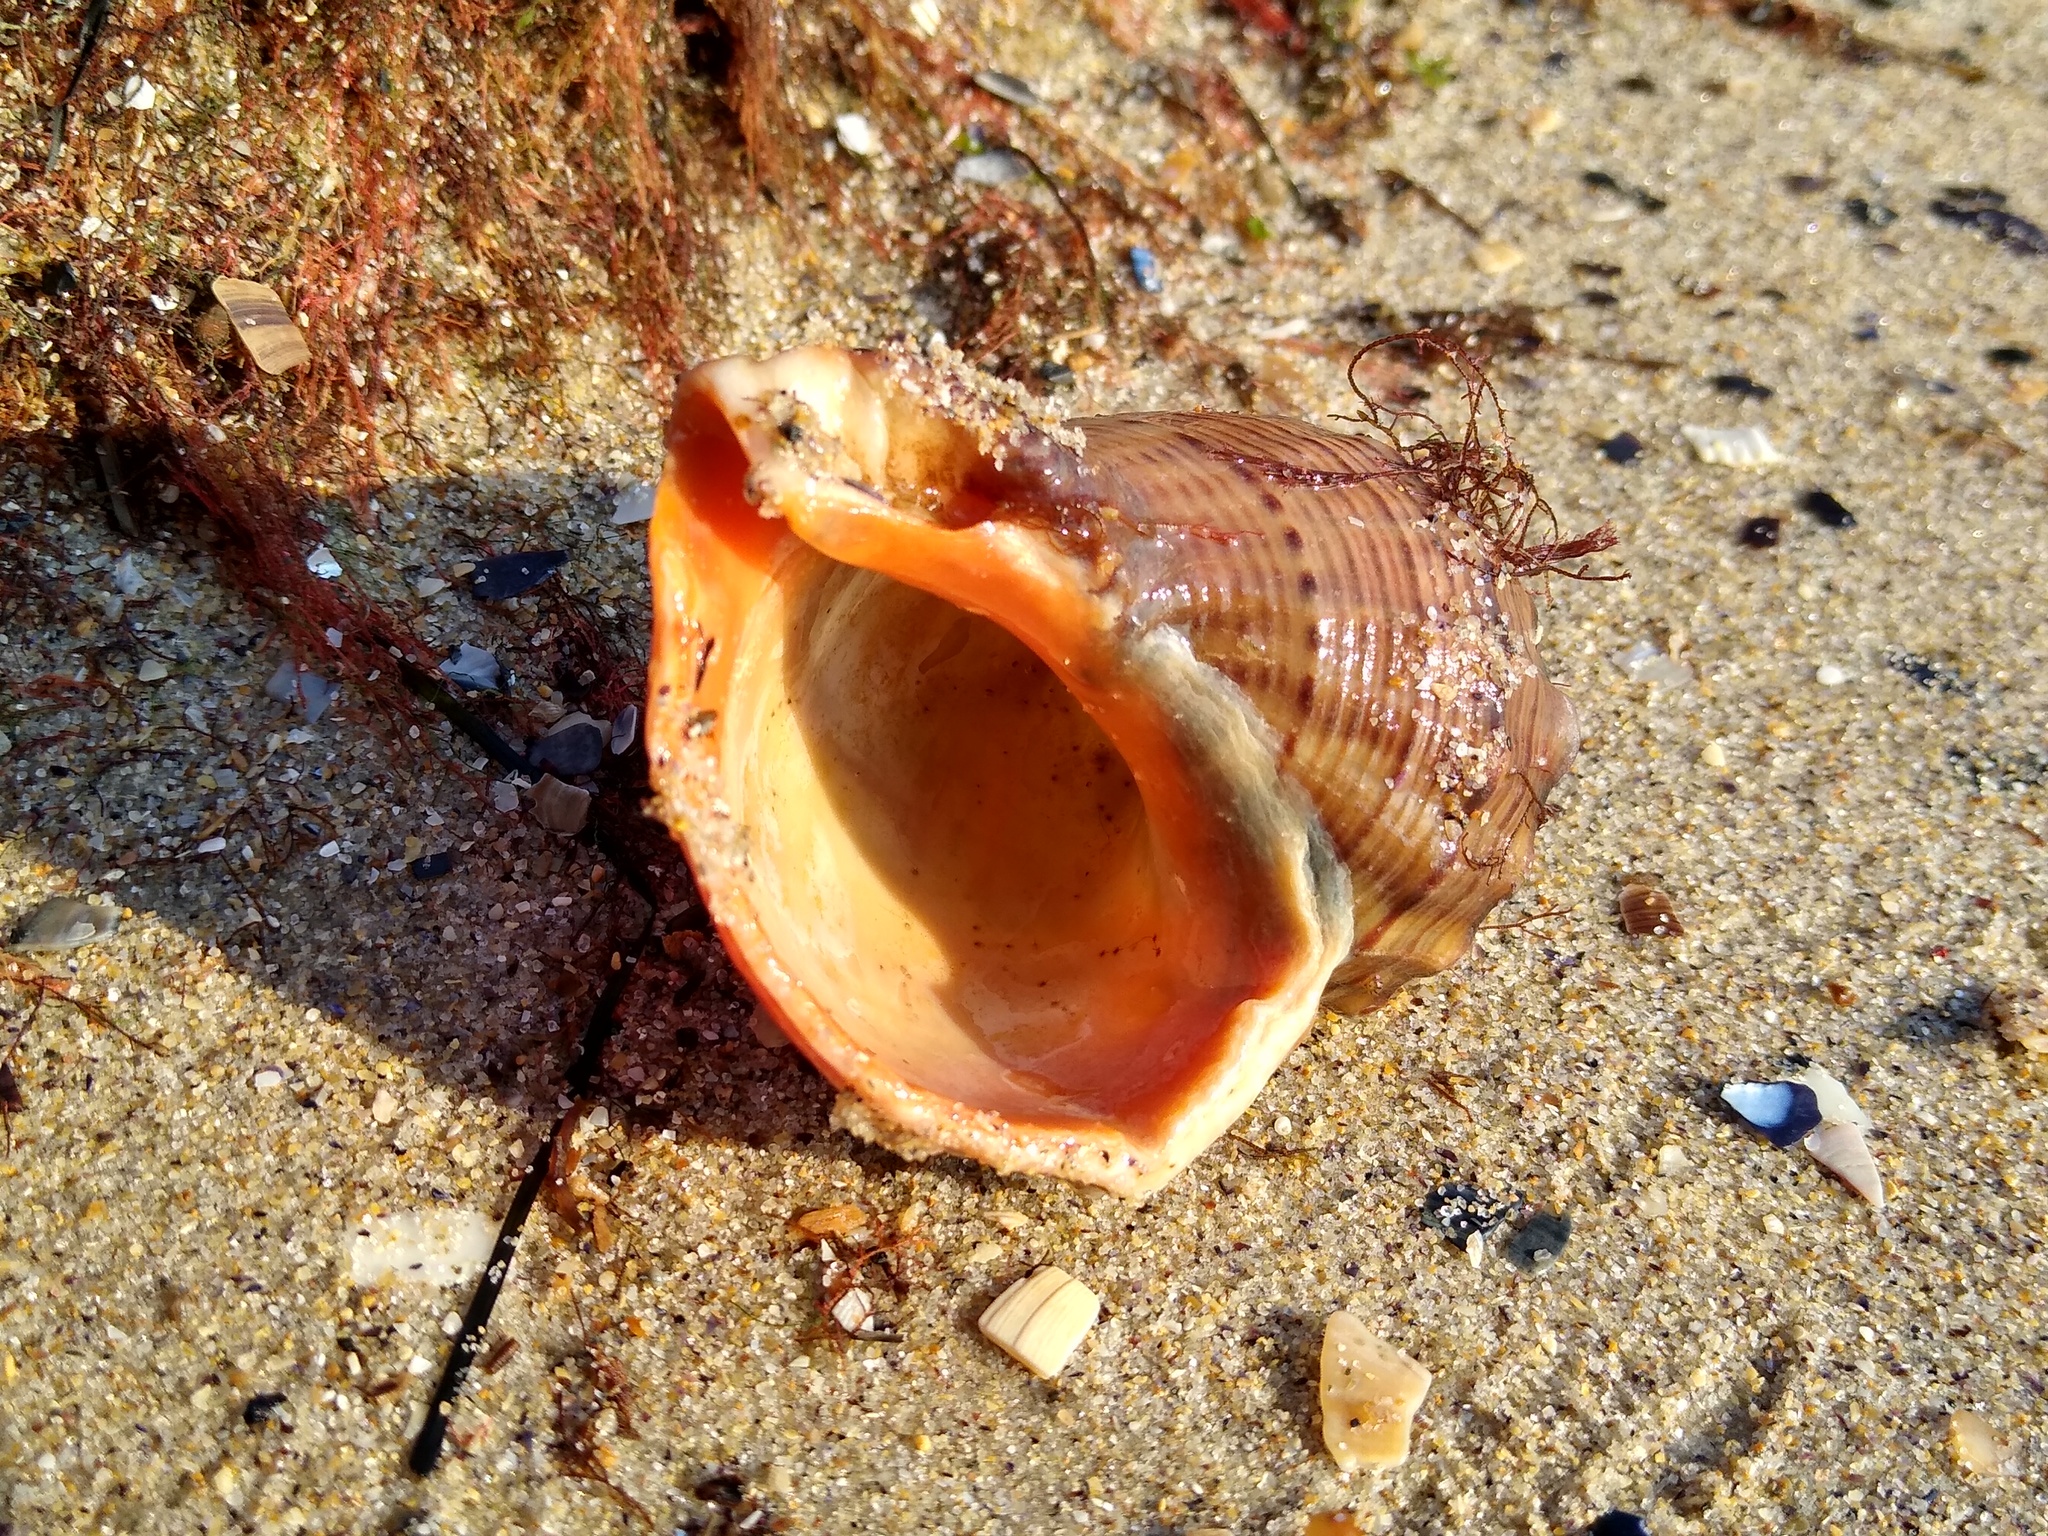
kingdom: Animalia
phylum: Mollusca
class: Gastropoda
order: Neogastropoda
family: Muricidae
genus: Rapana
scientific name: Rapana venosa
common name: Veined rapa whelk
